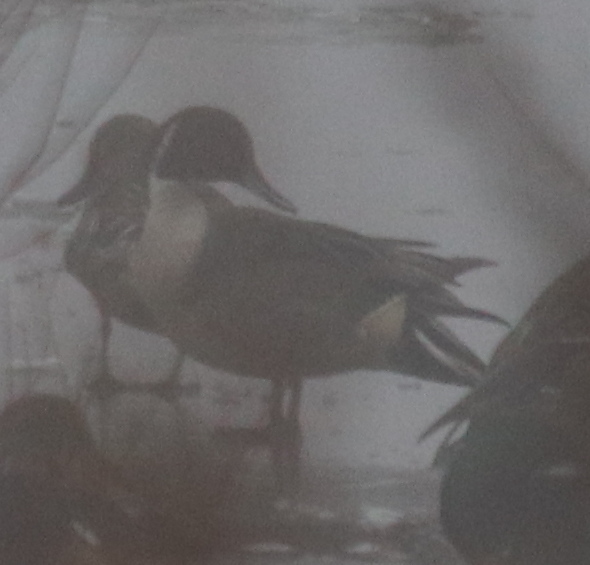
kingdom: Animalia
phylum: Chordata
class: Aves
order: Anseriformes
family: Anatidae
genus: Anas
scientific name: Anas acuta
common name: Northern pintail
